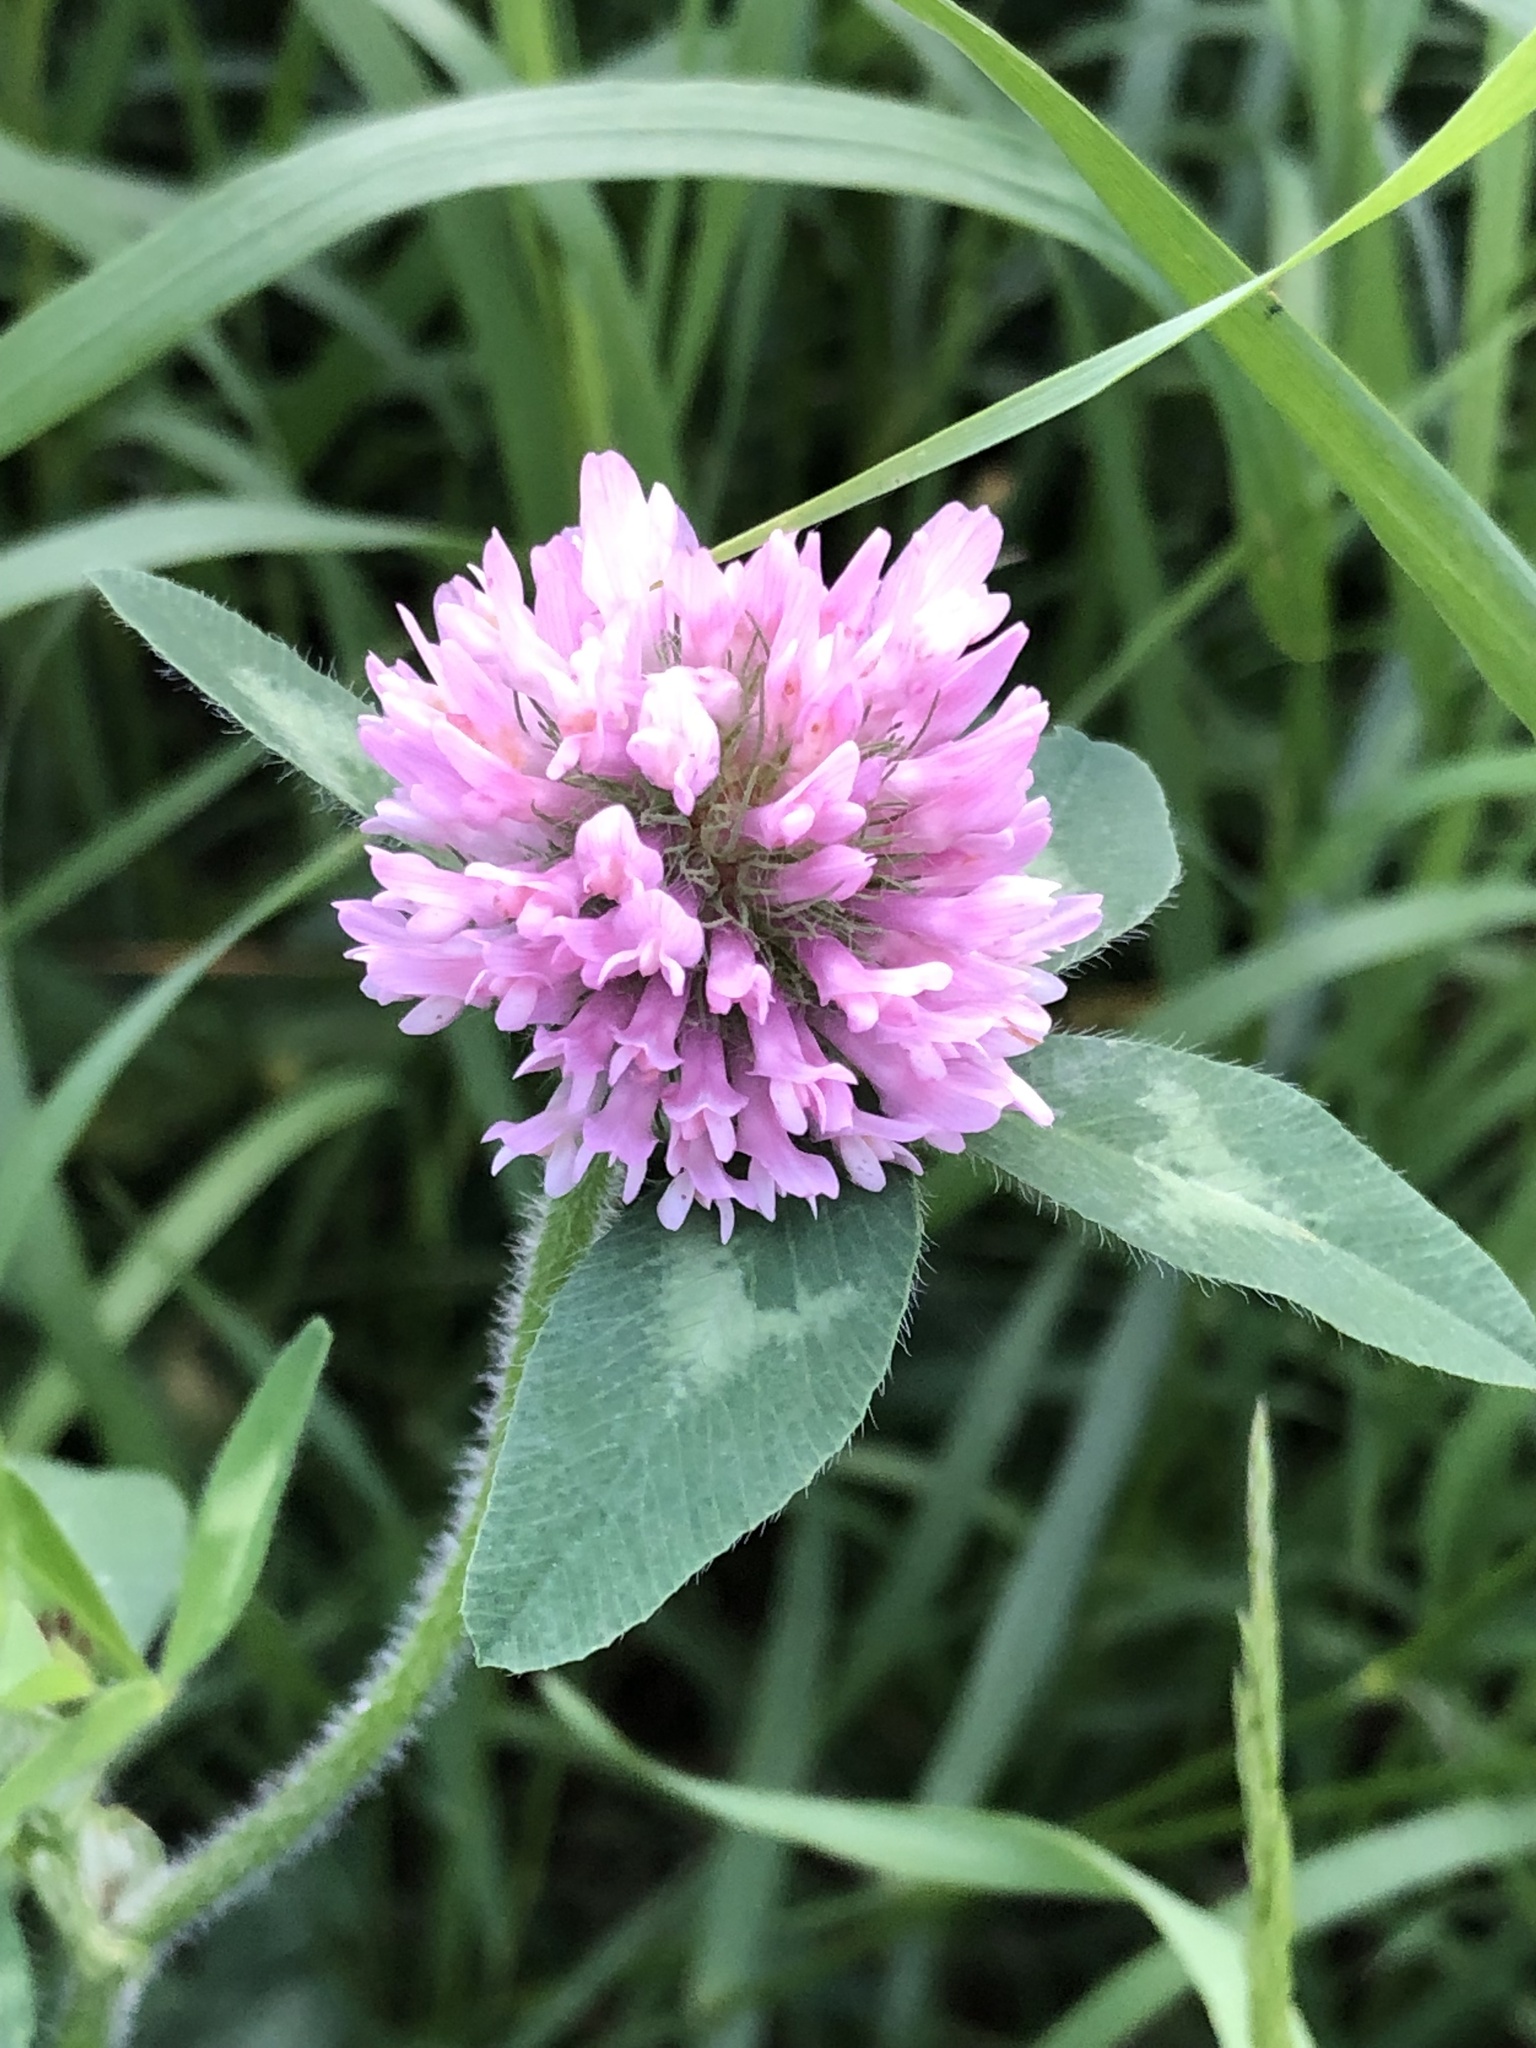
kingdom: Plantae
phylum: Tracheophyta
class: Magnoliopsida
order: Fabales
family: Fabaceae
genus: Trifolium
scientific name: Trifolium pratense
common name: Red clover
